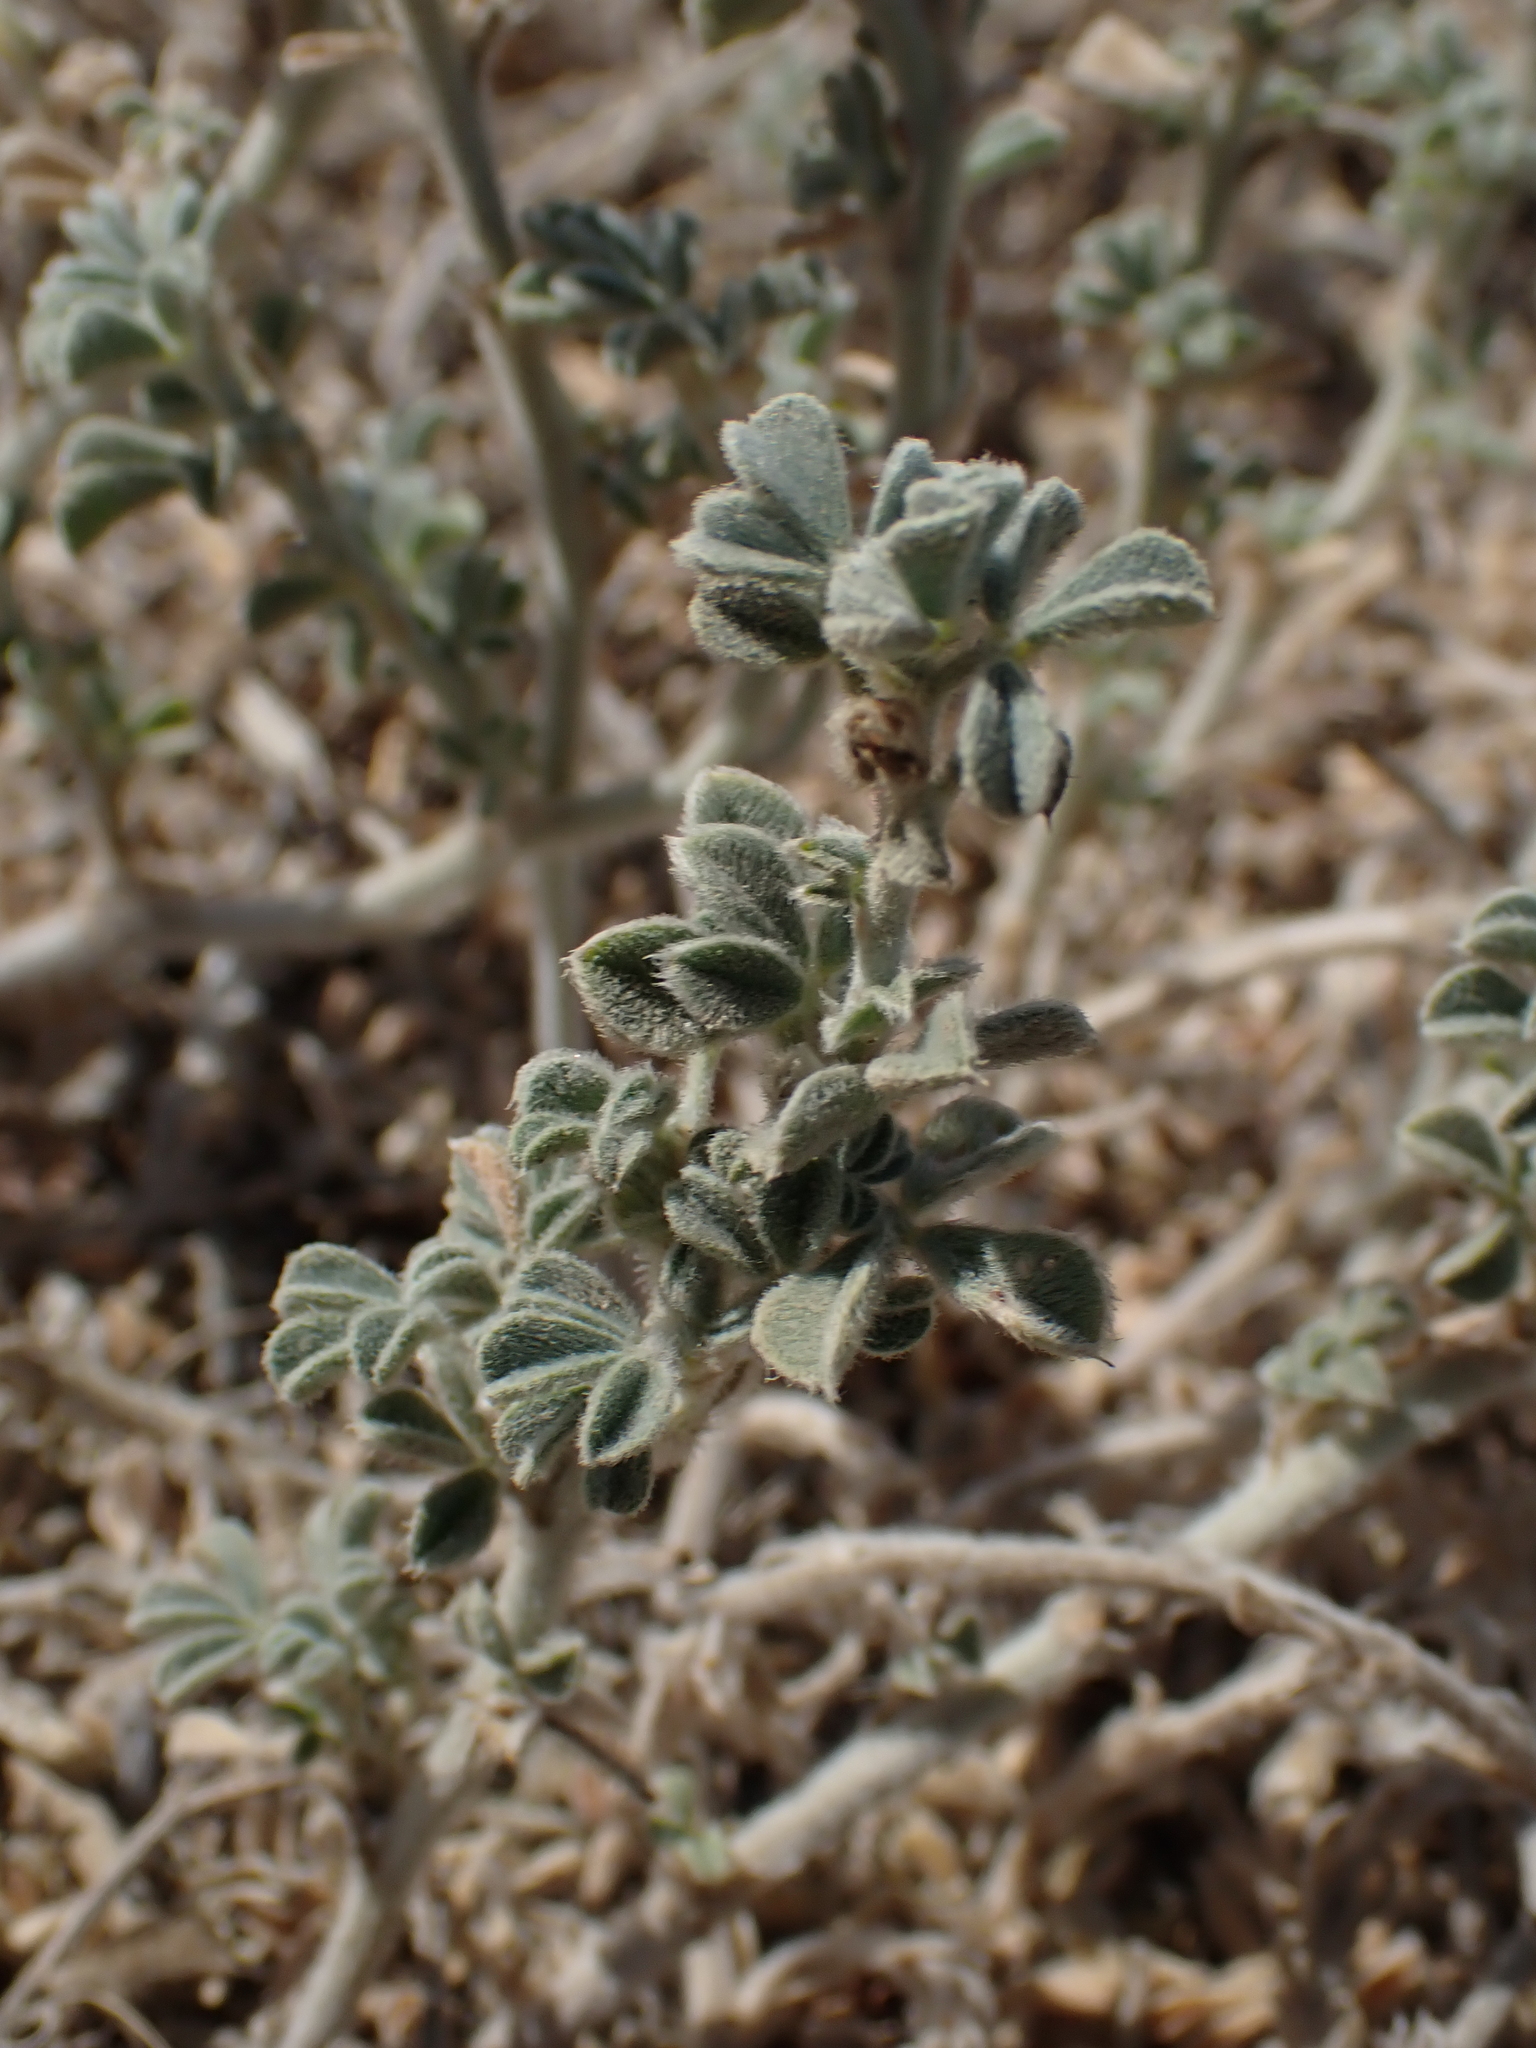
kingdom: Plantae
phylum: Tracheophyta
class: Magnoliopsida
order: Fabales
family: Fabaceae
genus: Medicago
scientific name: Medicago marina
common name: Sea medick
